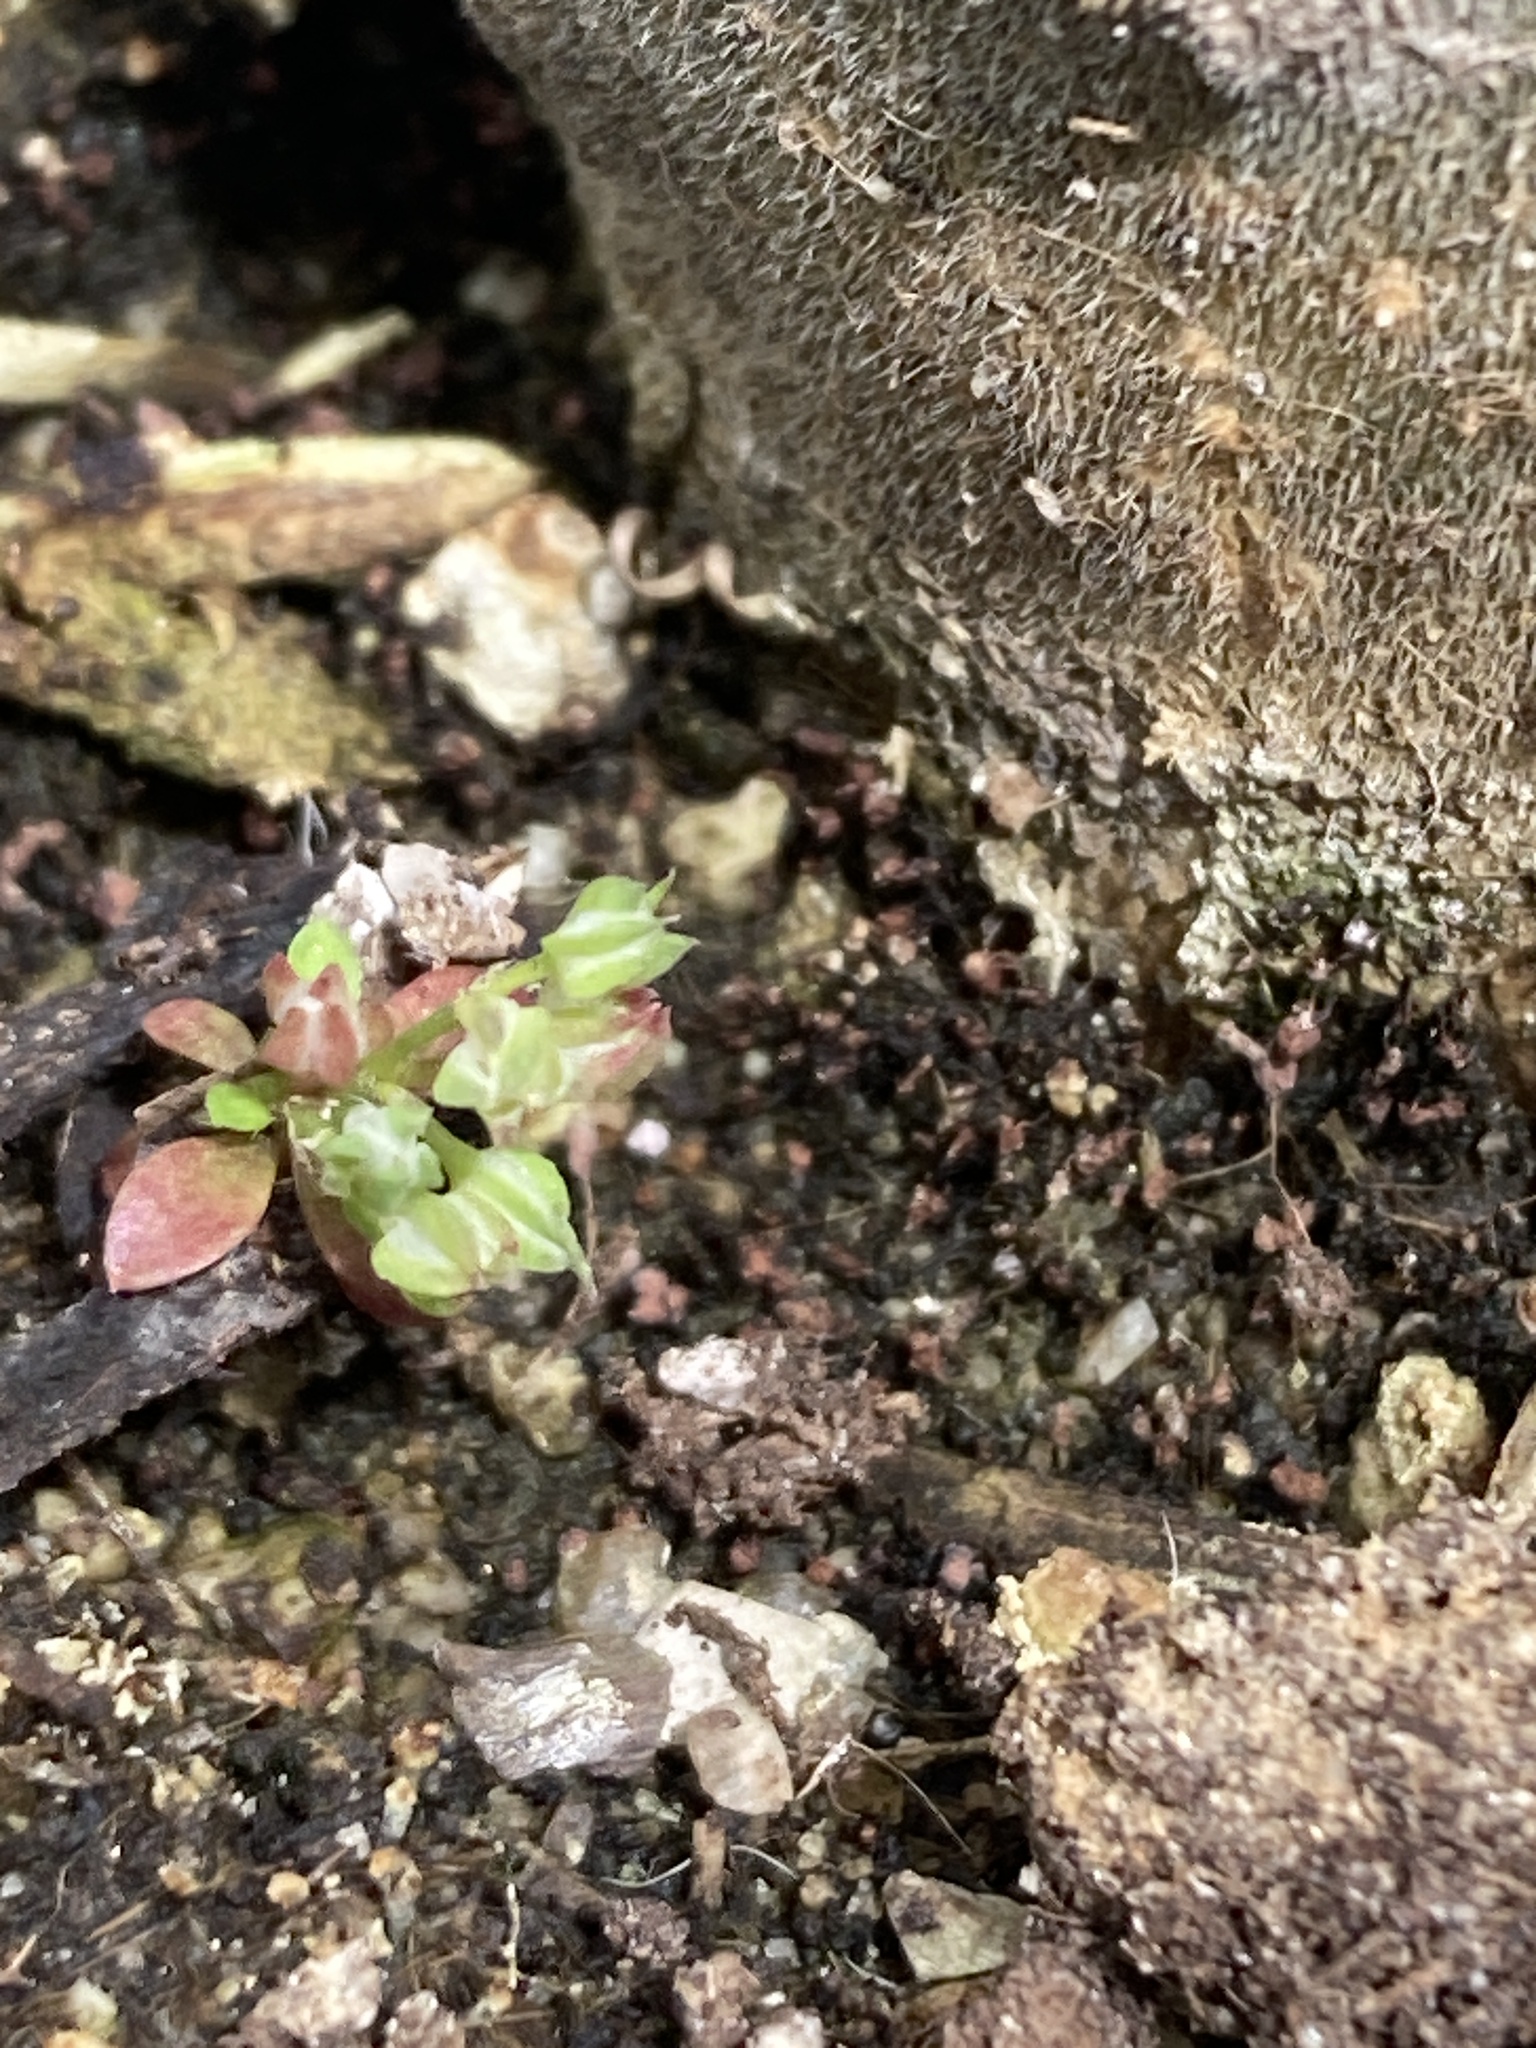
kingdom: Plantae
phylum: Tracheophyta
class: Magnoliopsida
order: Caryophyllales
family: Caryophyllaceae
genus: Polycarpon
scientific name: Polycarpon tetraphyllum
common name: Four-leaved all-seed
